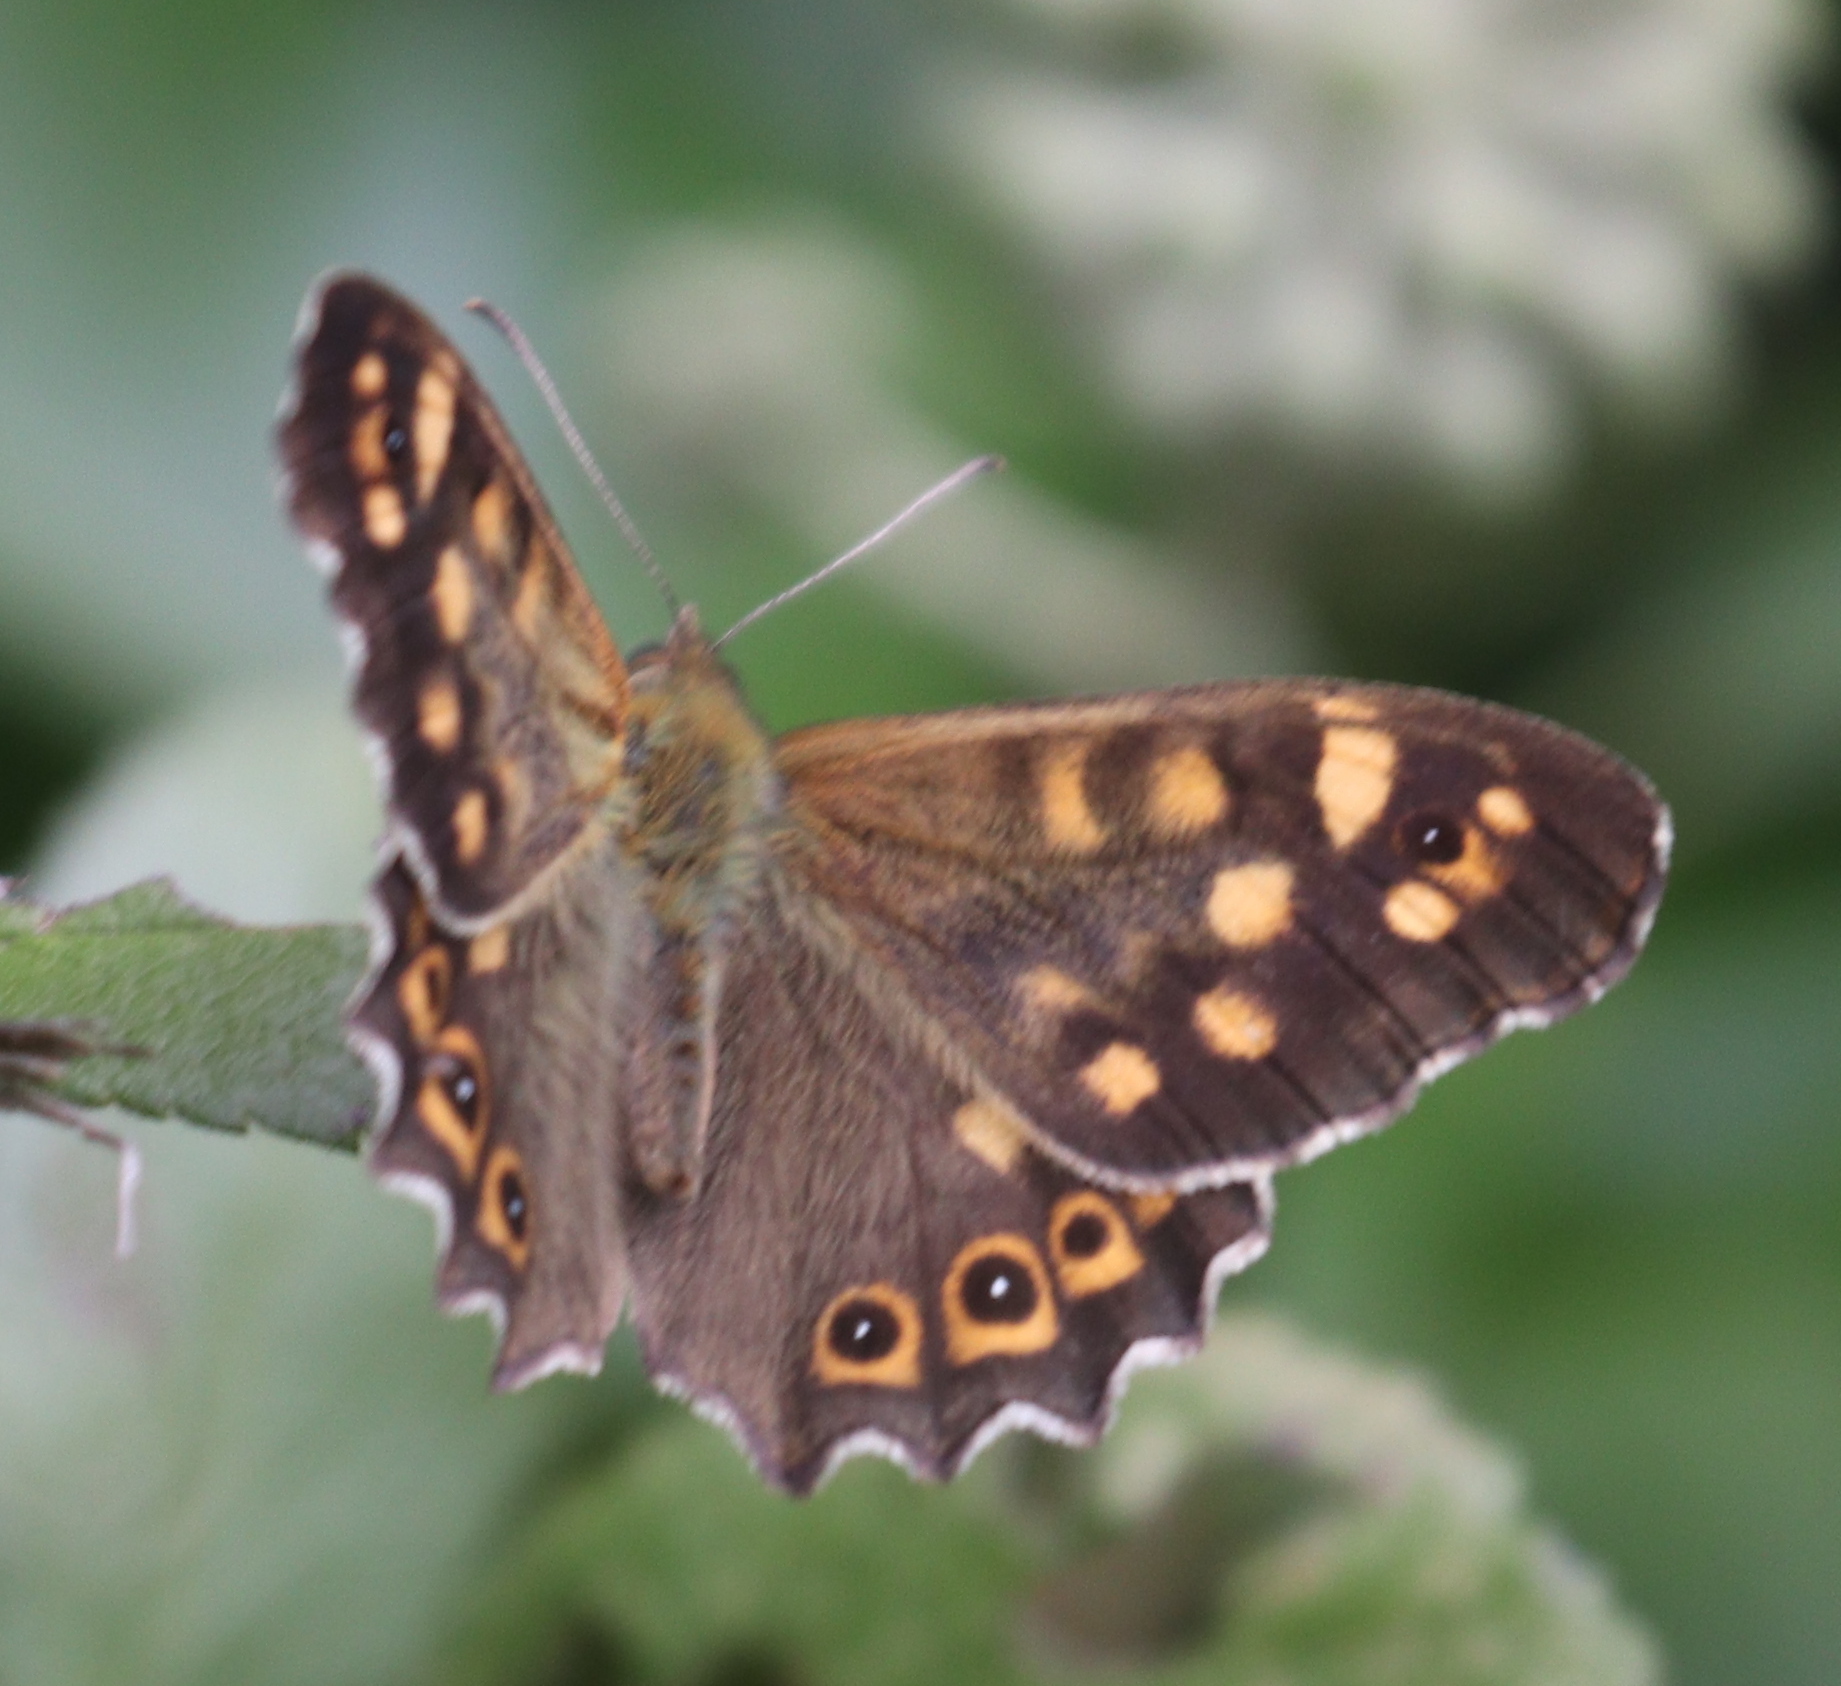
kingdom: Animalia
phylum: Arthropoda
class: Insecta
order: Lepidoptera
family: Nymphalidae
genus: Pararge
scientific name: Pararge aegeria
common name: Speckled wood
